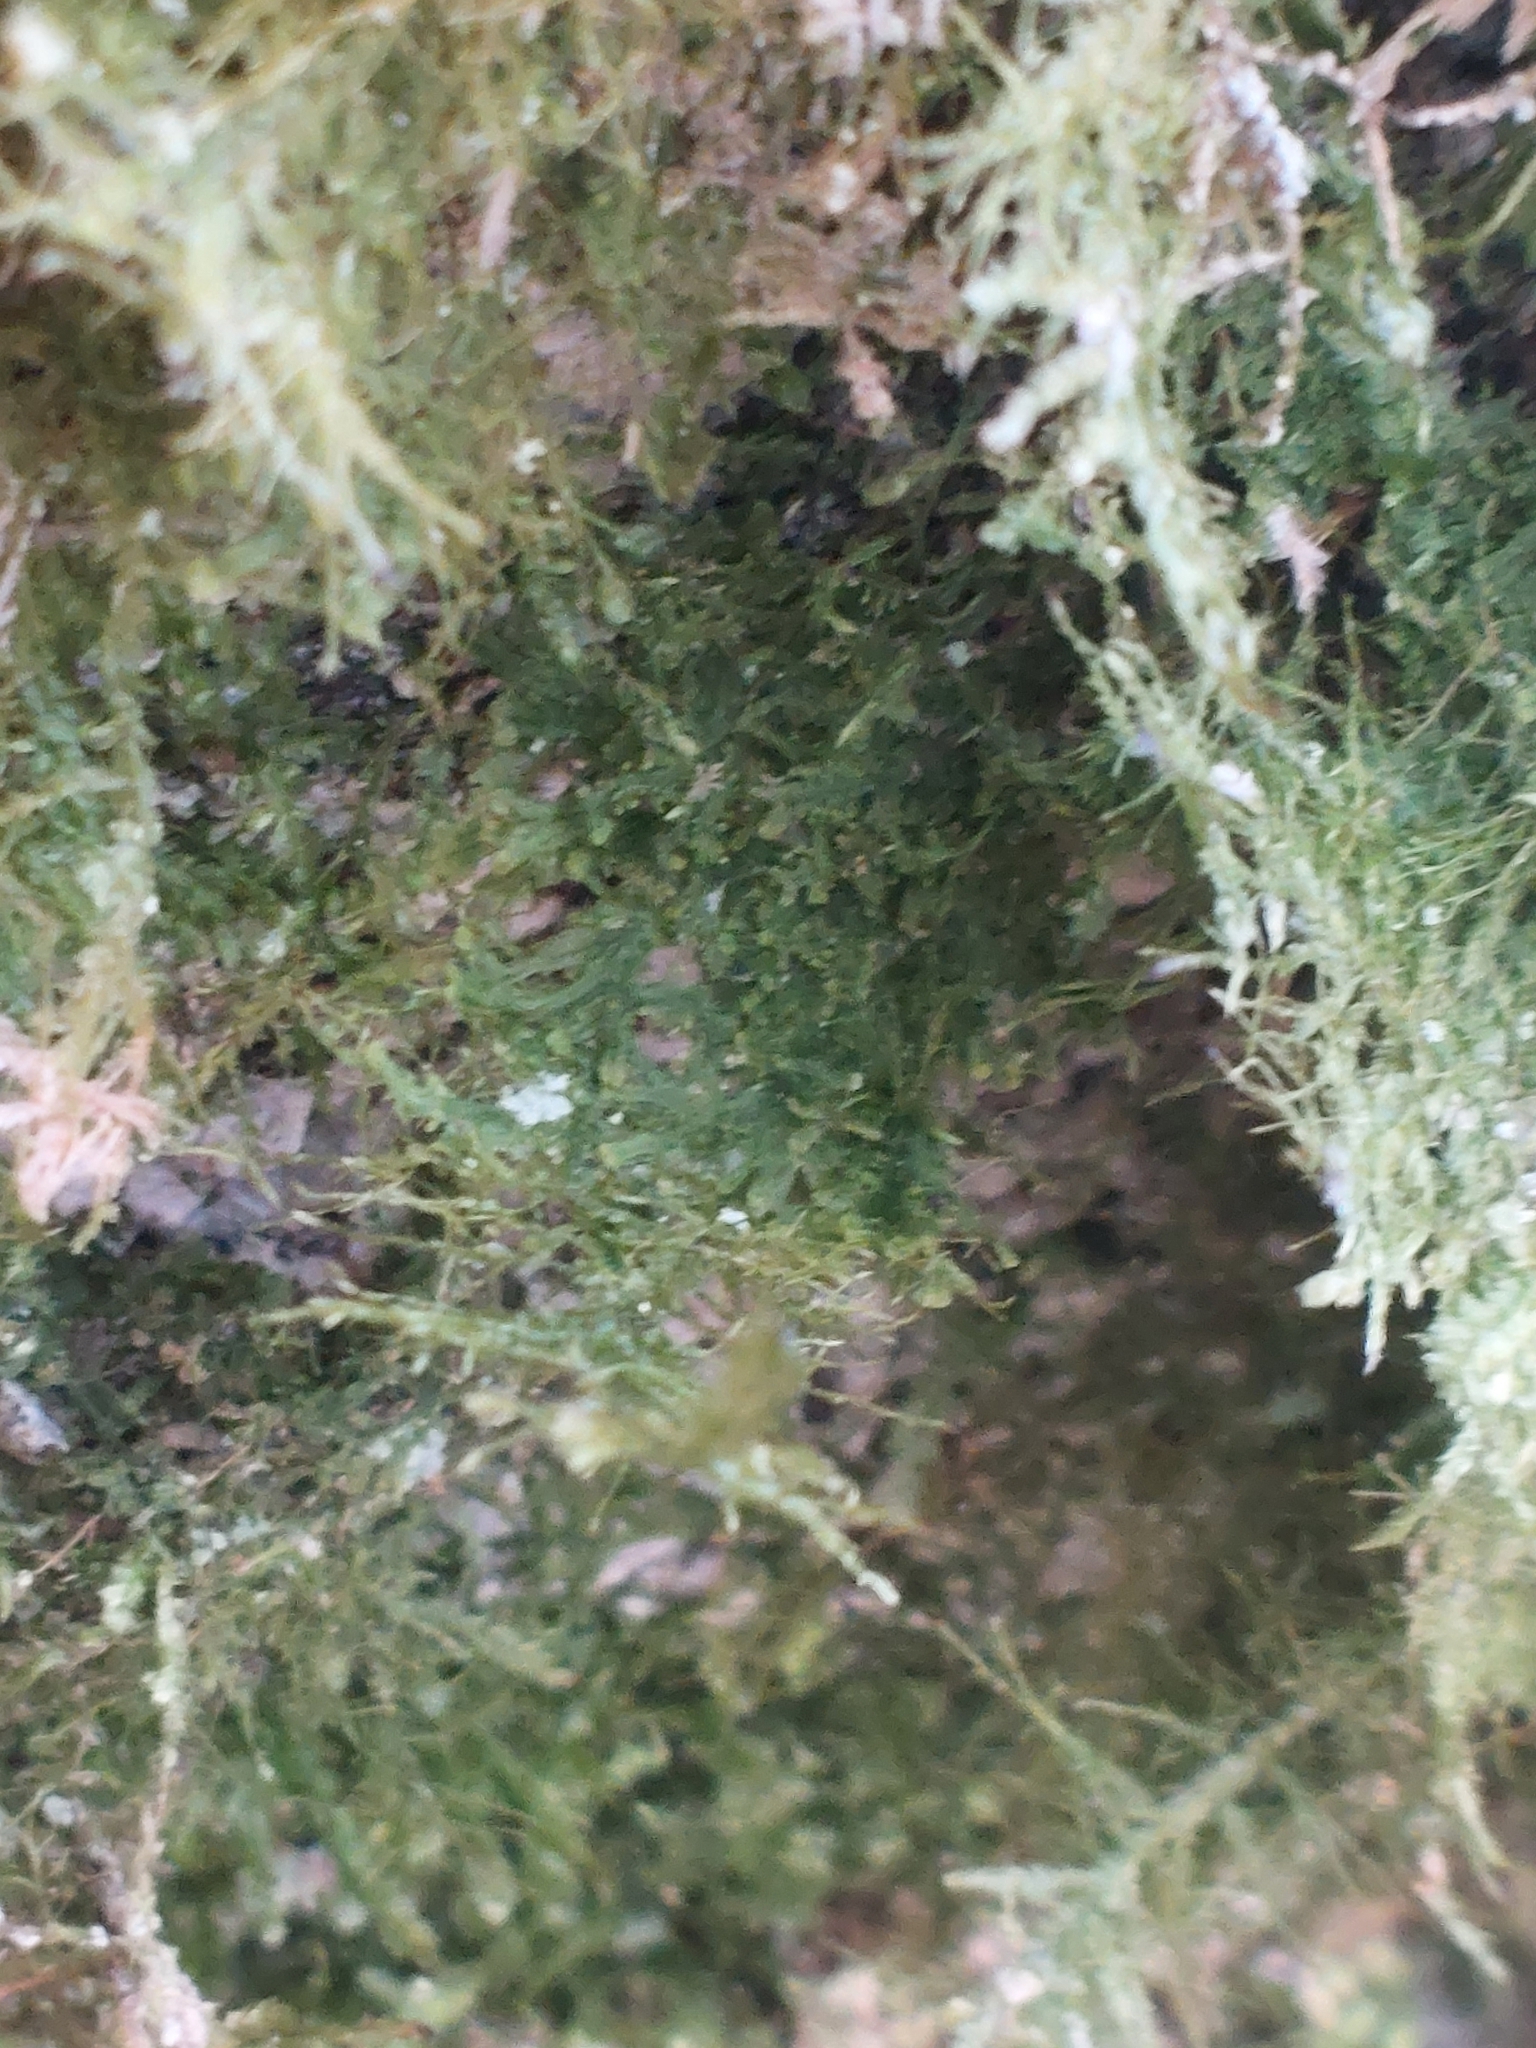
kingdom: Plantae
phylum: Bryophyta
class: Bryopsida
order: Hypnales
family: Neckeraceae
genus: Alleniella
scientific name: Alleniella complanata
